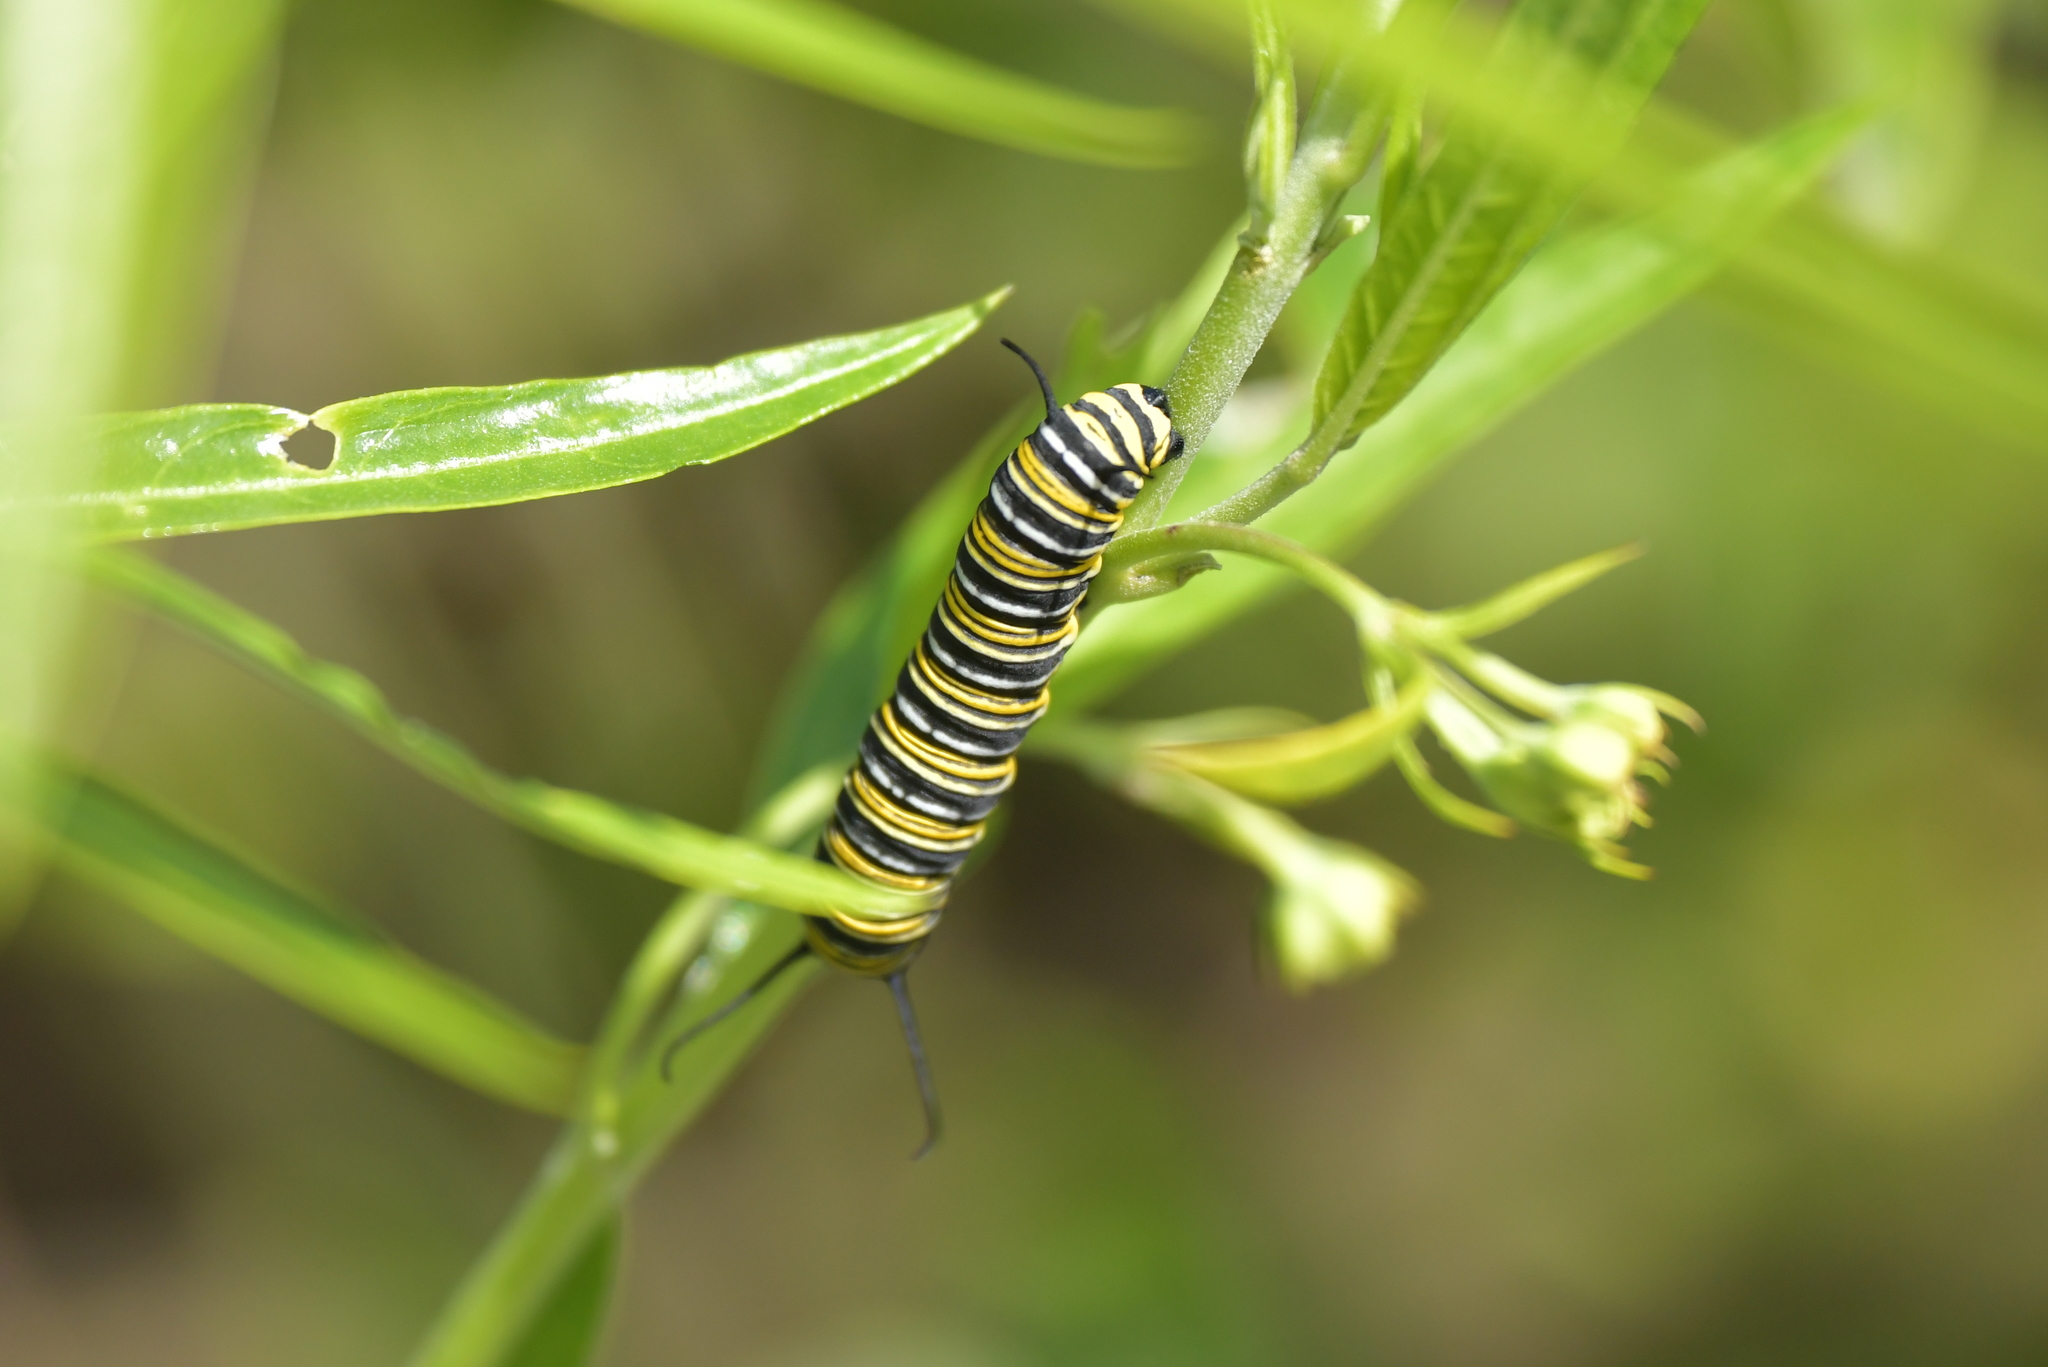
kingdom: Animalia
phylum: Arthropoda
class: Insecta
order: Lepidoptera
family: Nymphalidae
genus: Danaus
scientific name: Danaus plexippus
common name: Monarch
